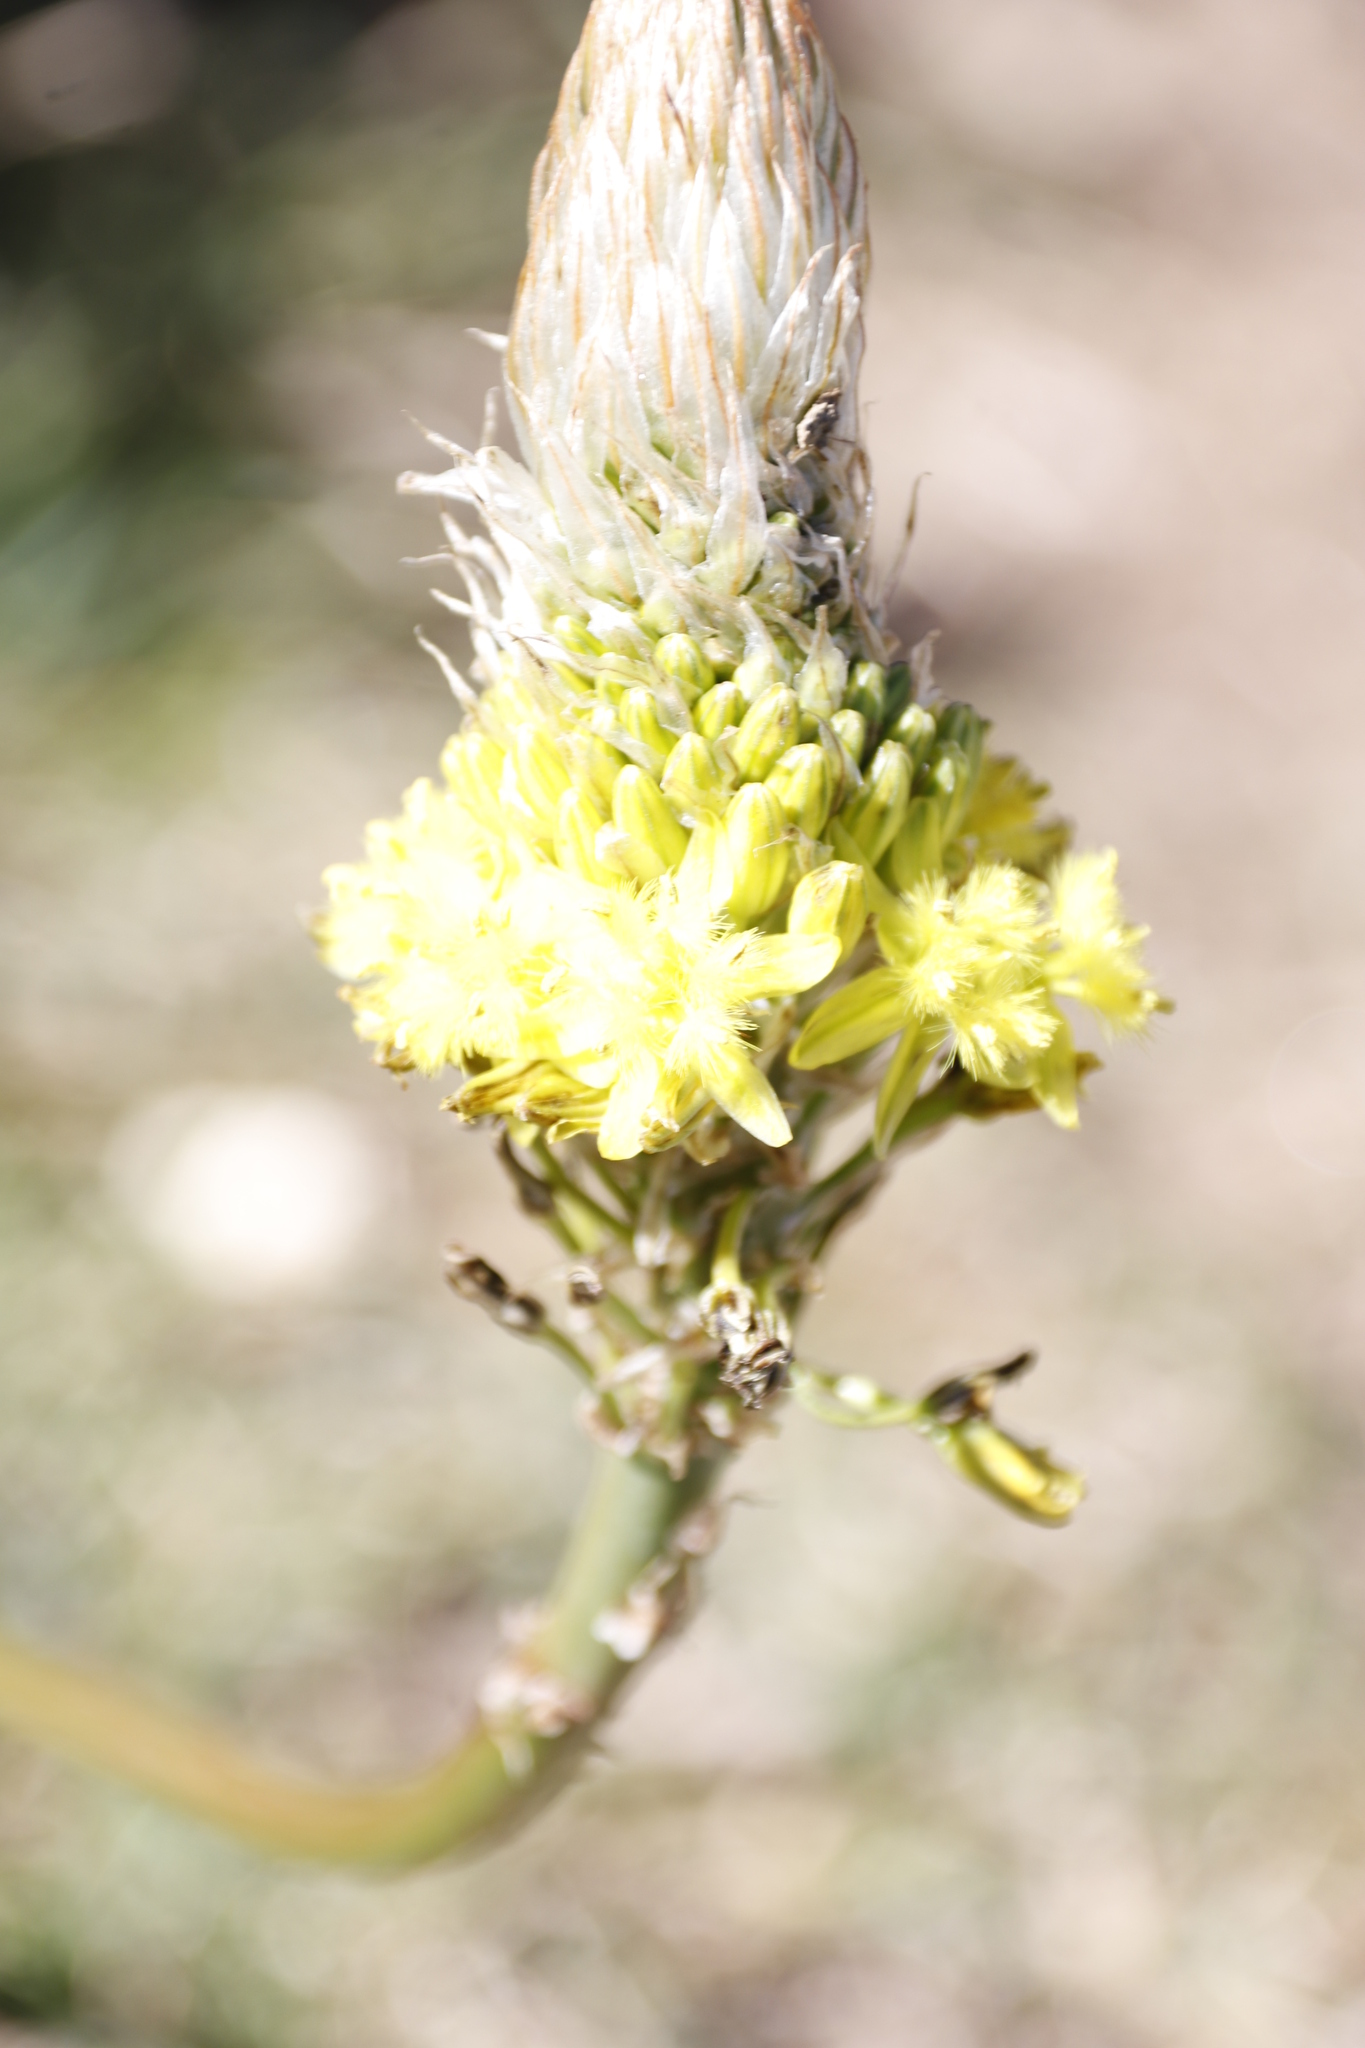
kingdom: Plantae
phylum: Tracheophyta
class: Liliopsida
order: Asparagales
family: Asphodelaceae
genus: Bulbine
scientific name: Bulbine narcissifolia
